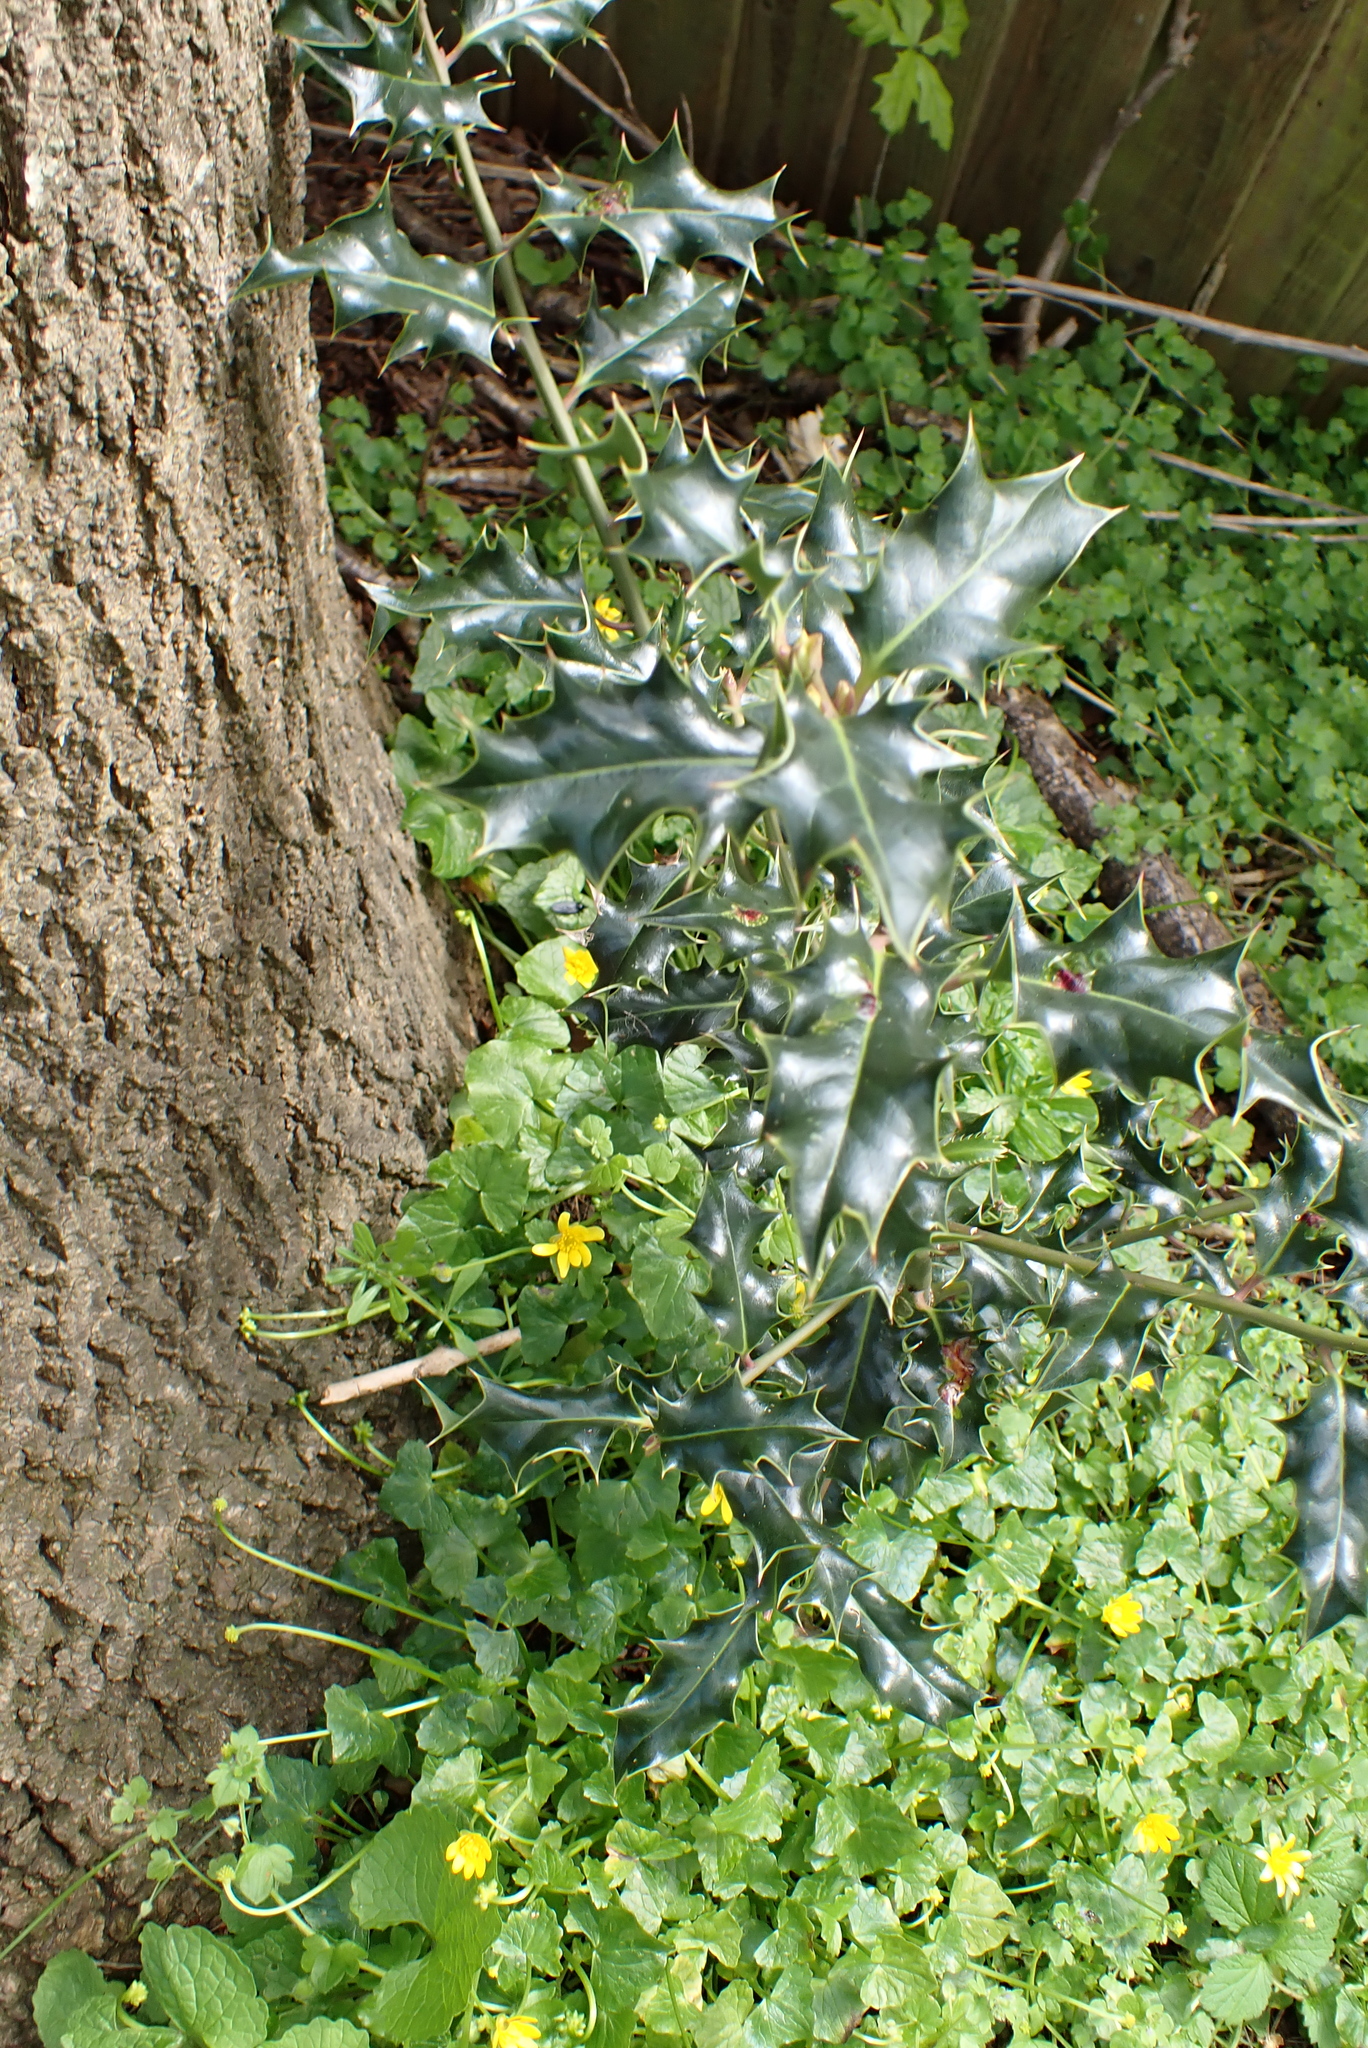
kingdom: Plantae
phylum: Tracheophyta
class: Magnoliopsida
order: Aquifoliales
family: Aquifoliaceae
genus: Ilex
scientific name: Ilex aquifolium
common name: English holly
